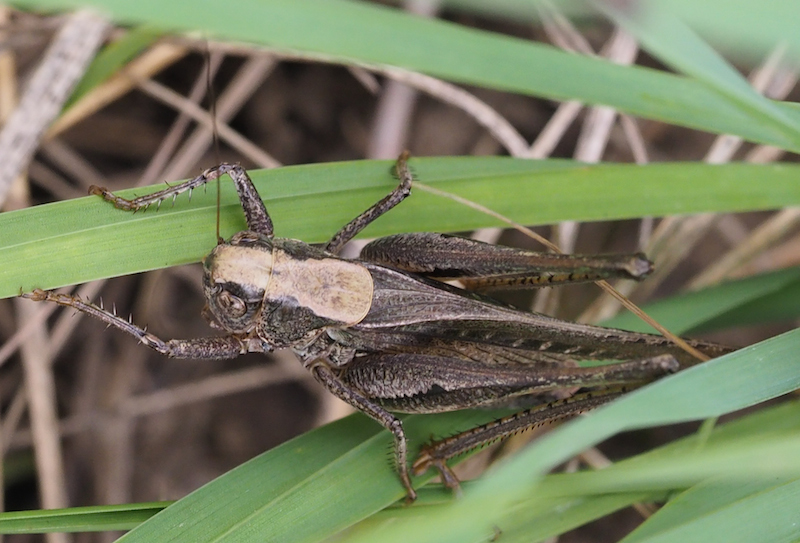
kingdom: Animalia
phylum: Arthropoda
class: Insecta
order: Orthoptera
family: Tettigoniidae
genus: Platycleis
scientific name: Platycleis grisea
